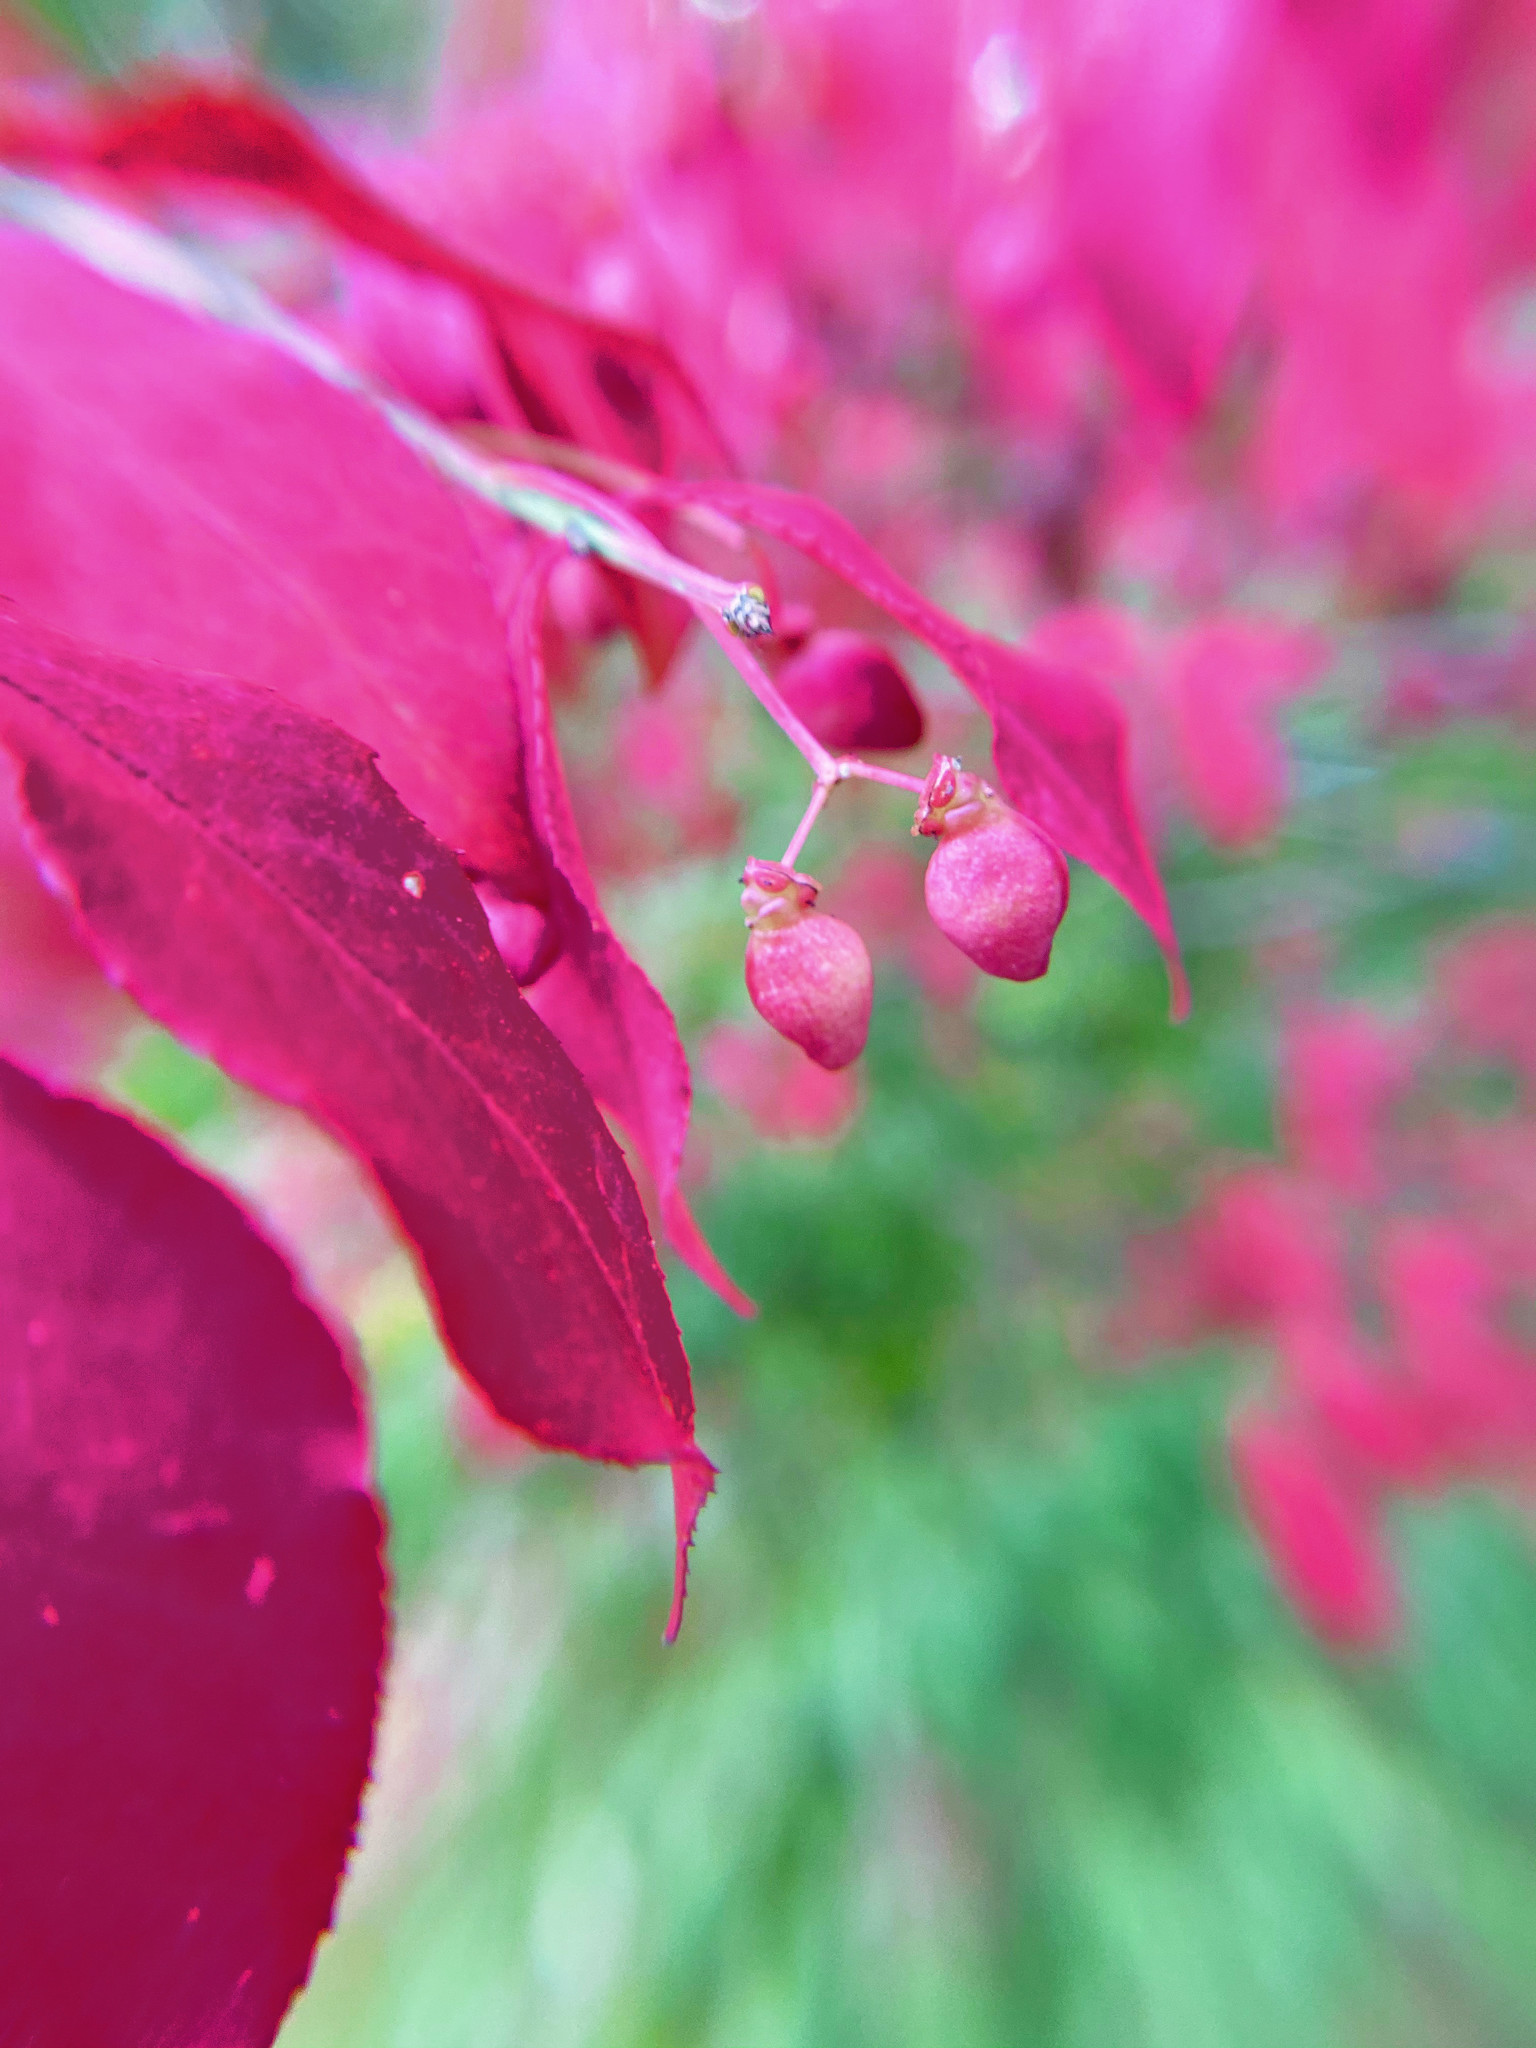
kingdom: Plantae
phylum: Tracheophyta
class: Magnoliopsida
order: Celastrales
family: Celastraceae
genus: Euonymus
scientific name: Euonymus alatus
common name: Winged euonymus
